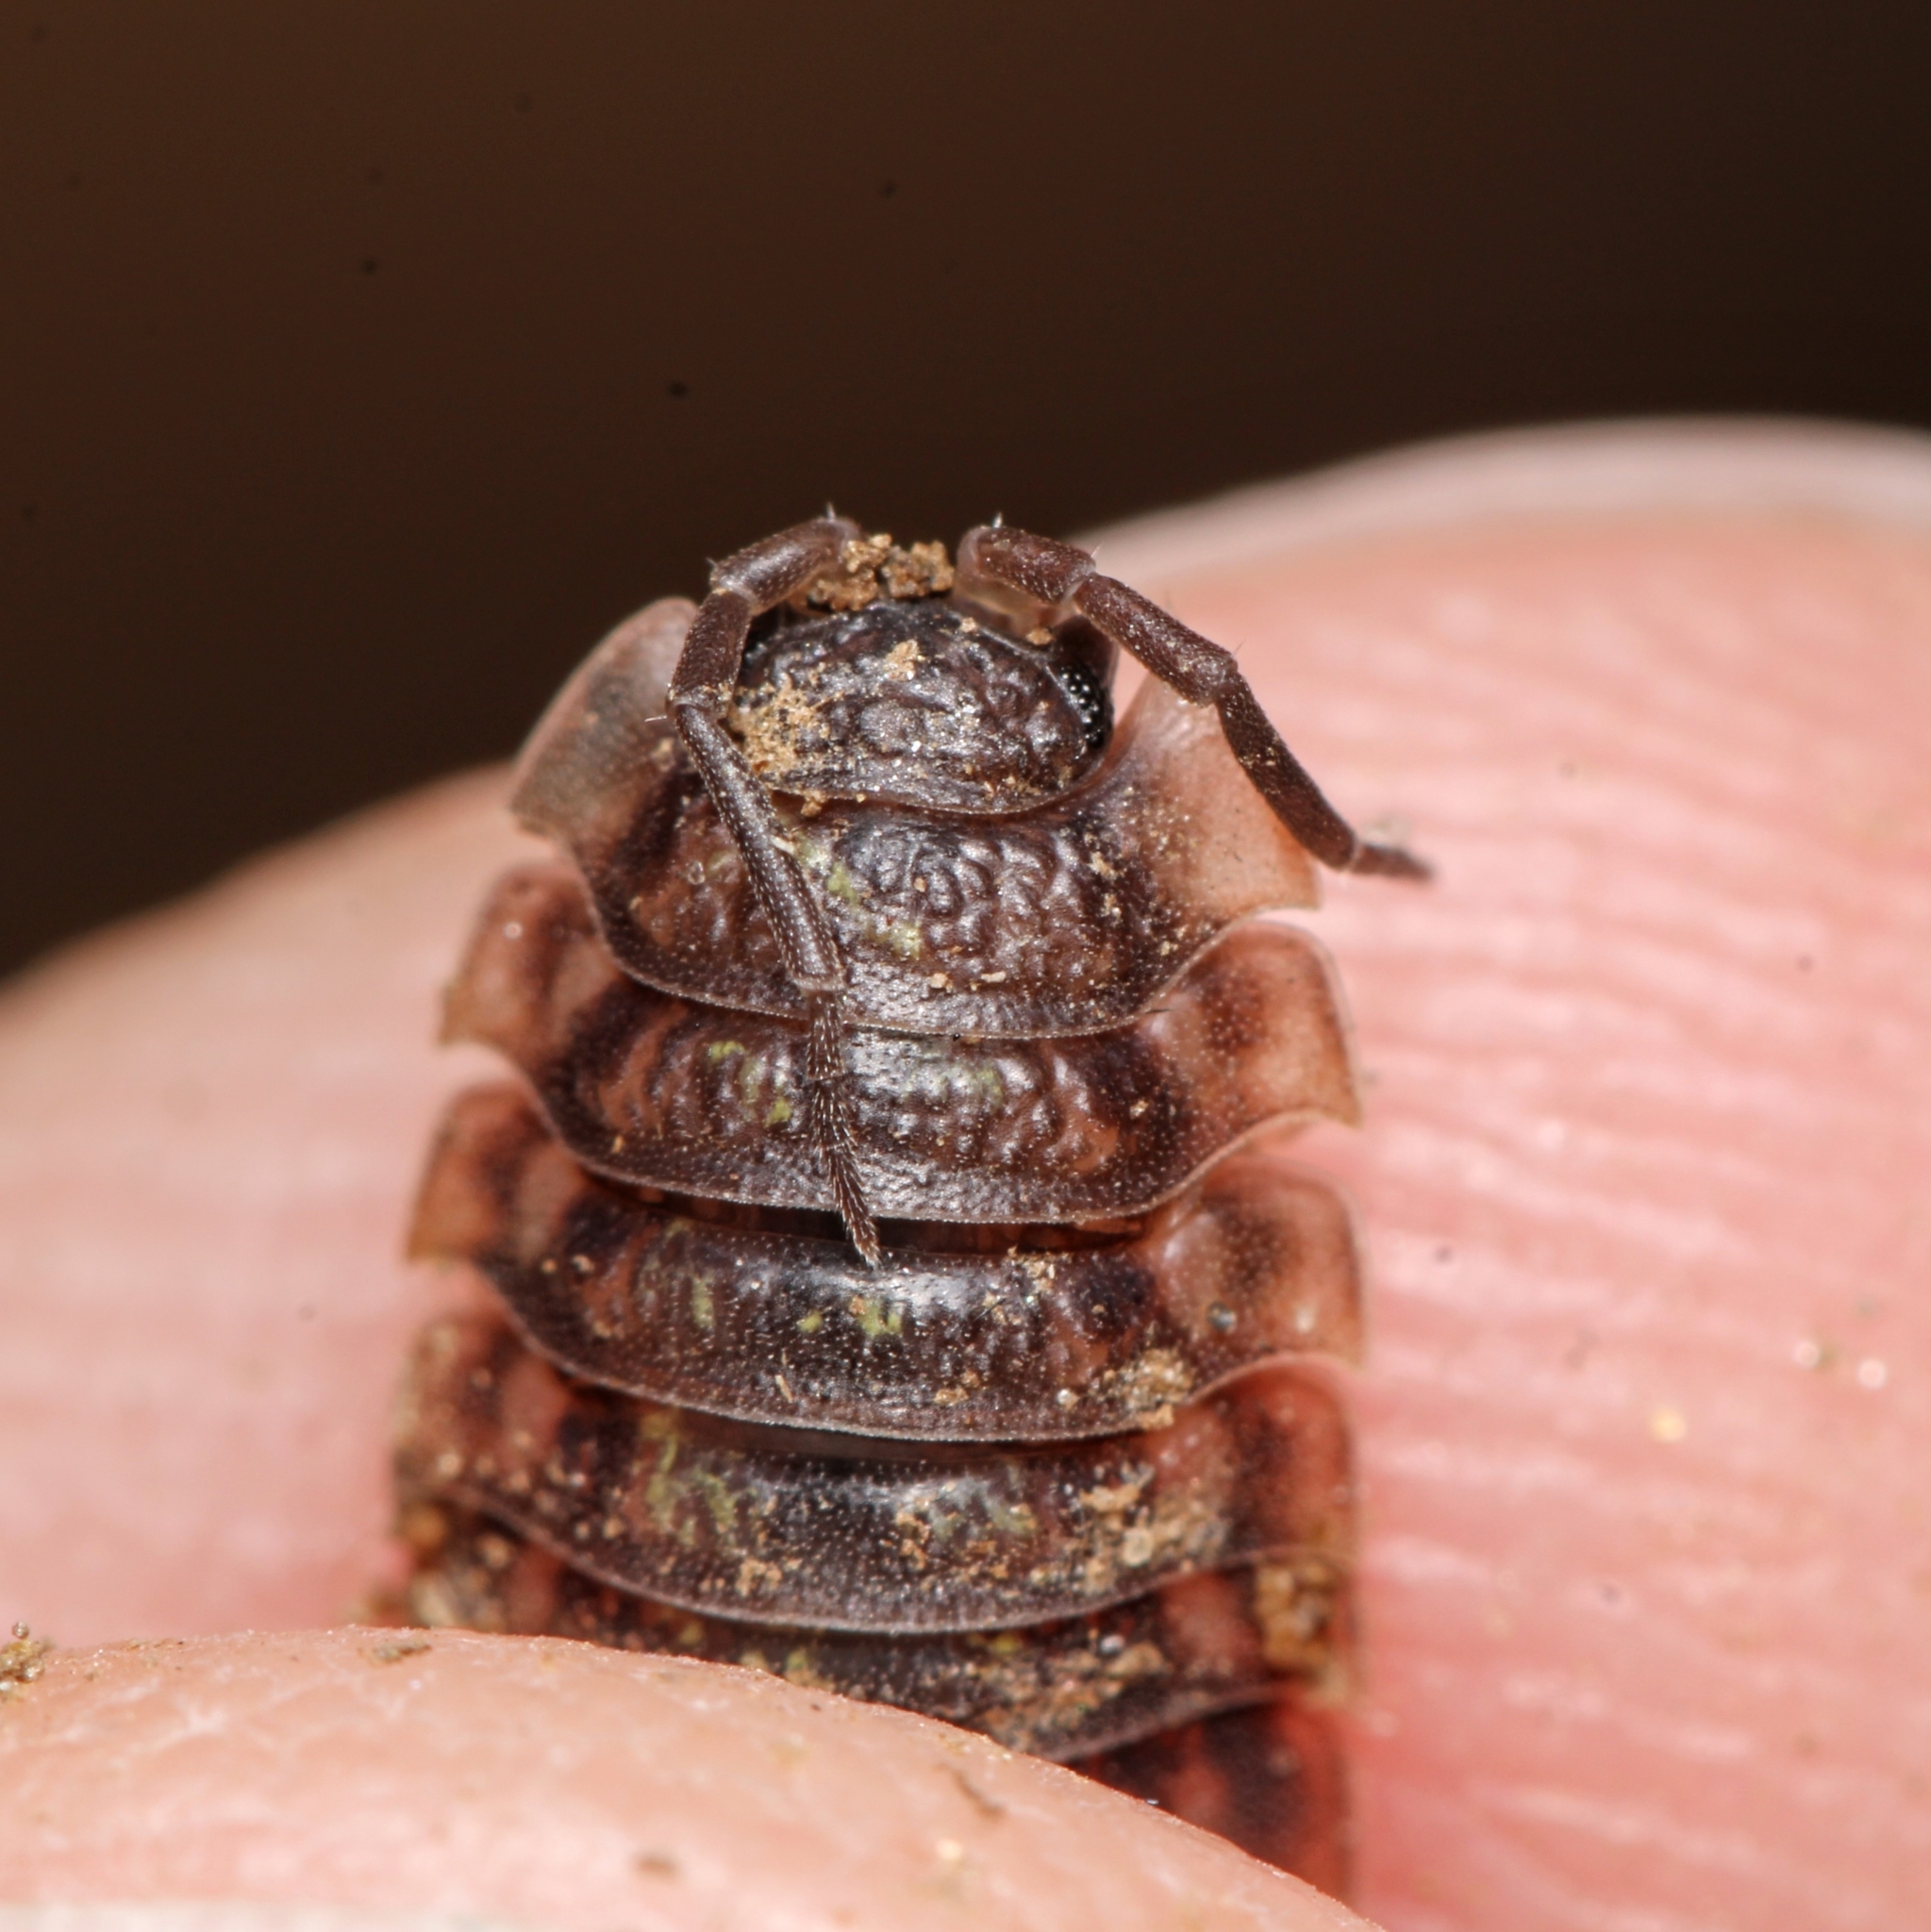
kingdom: Animalia
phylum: Arthropoda
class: Malacostraca
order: Isopoda
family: Oniscidae
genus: Oniscus
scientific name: Oniscus asellus
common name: Common shiny woodlouse
